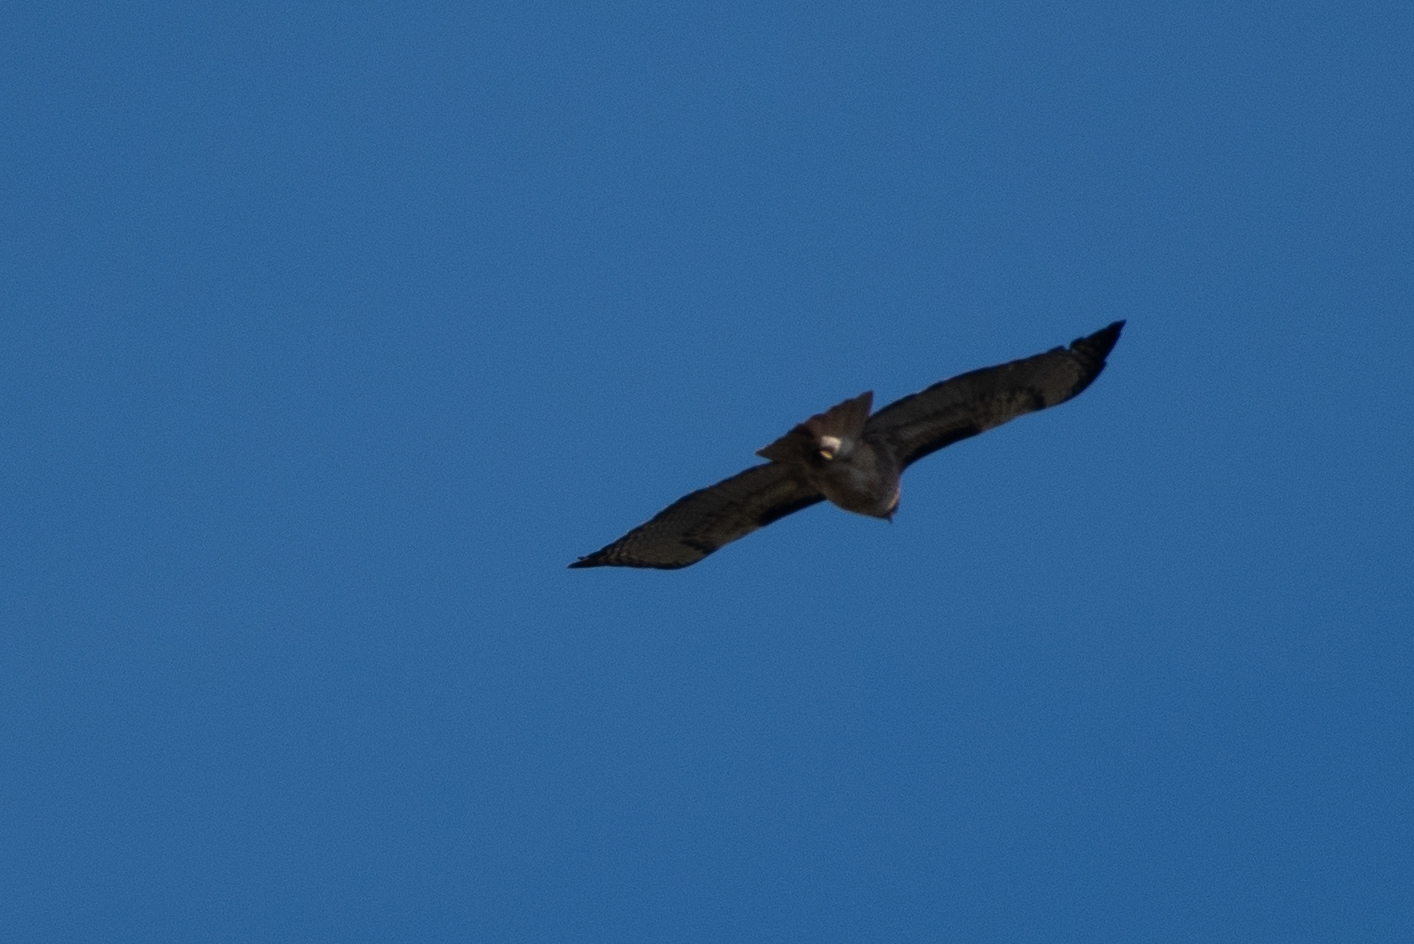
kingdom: Animalia
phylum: Chordata
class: Aves
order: Accipitriformes
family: Accipitridae
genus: Buteo
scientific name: Buteo jamaicensis
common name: Red-tailed hawk
